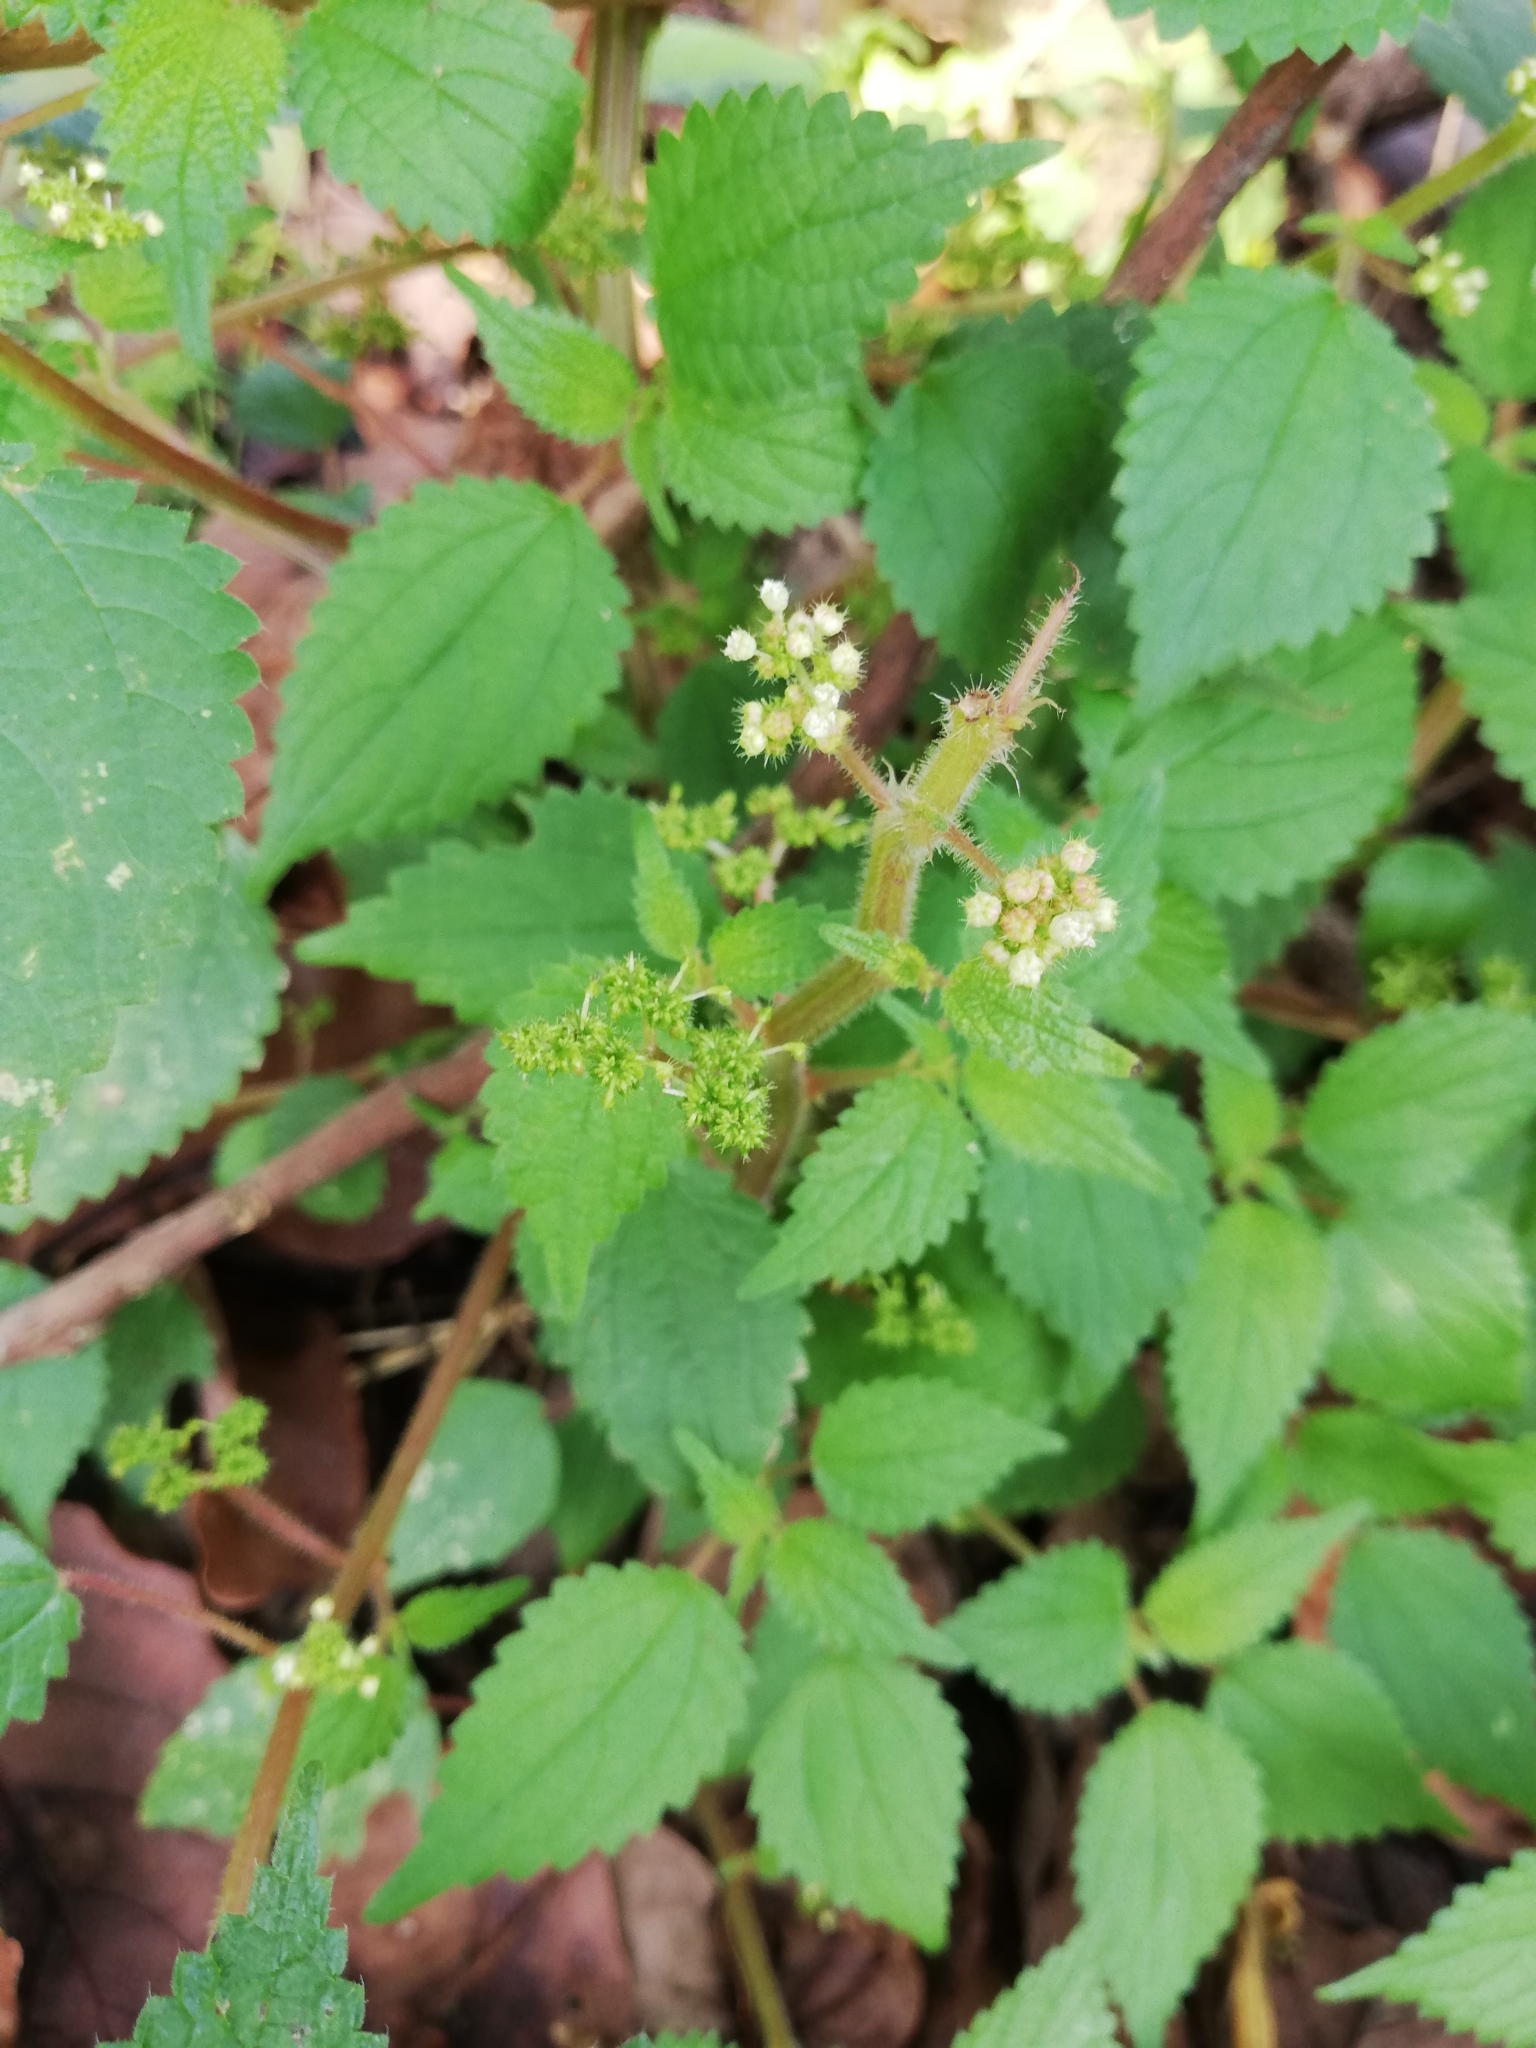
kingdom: Plantae
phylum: Tracheophyta
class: Magnoliopsida
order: Rosales
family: Urticaceae
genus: Laportea
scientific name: Laportea aestuans
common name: West indian woodnettle
